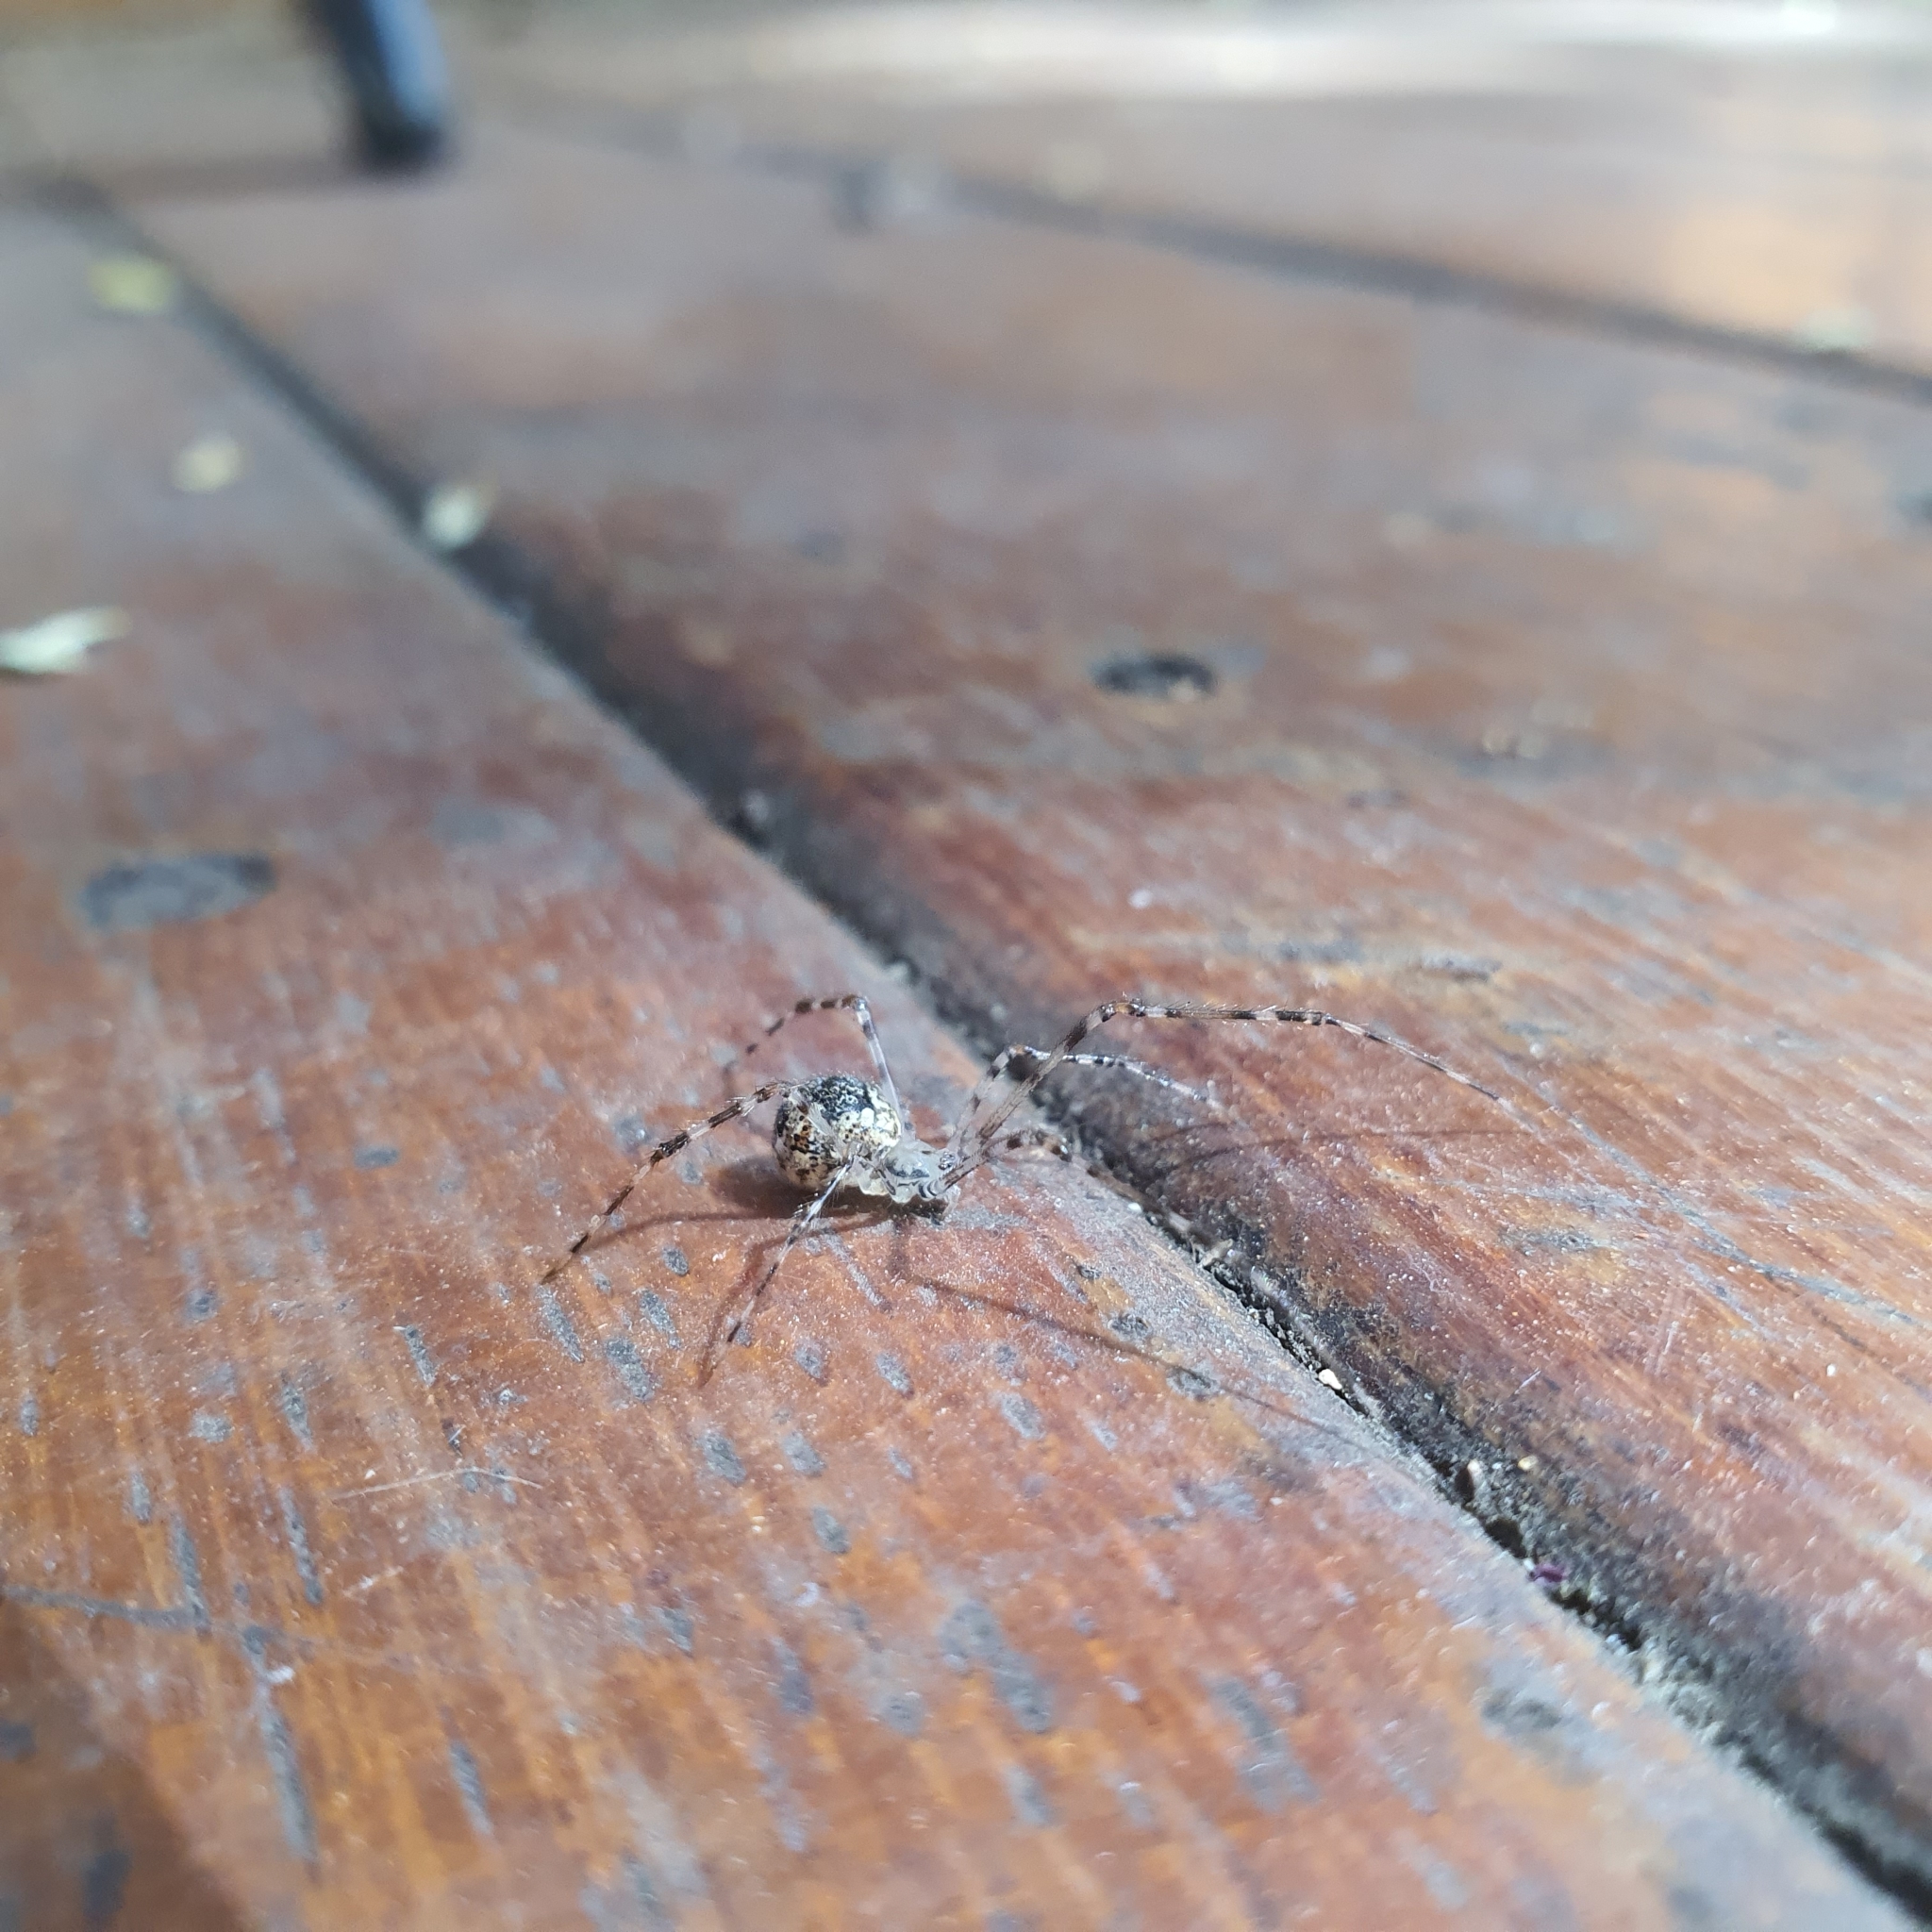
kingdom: Animalia
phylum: Arthropoda
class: Arachnida
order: Araneae
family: Theridiidae
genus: Cryptachaea
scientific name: Cryptachaea gigantipes
